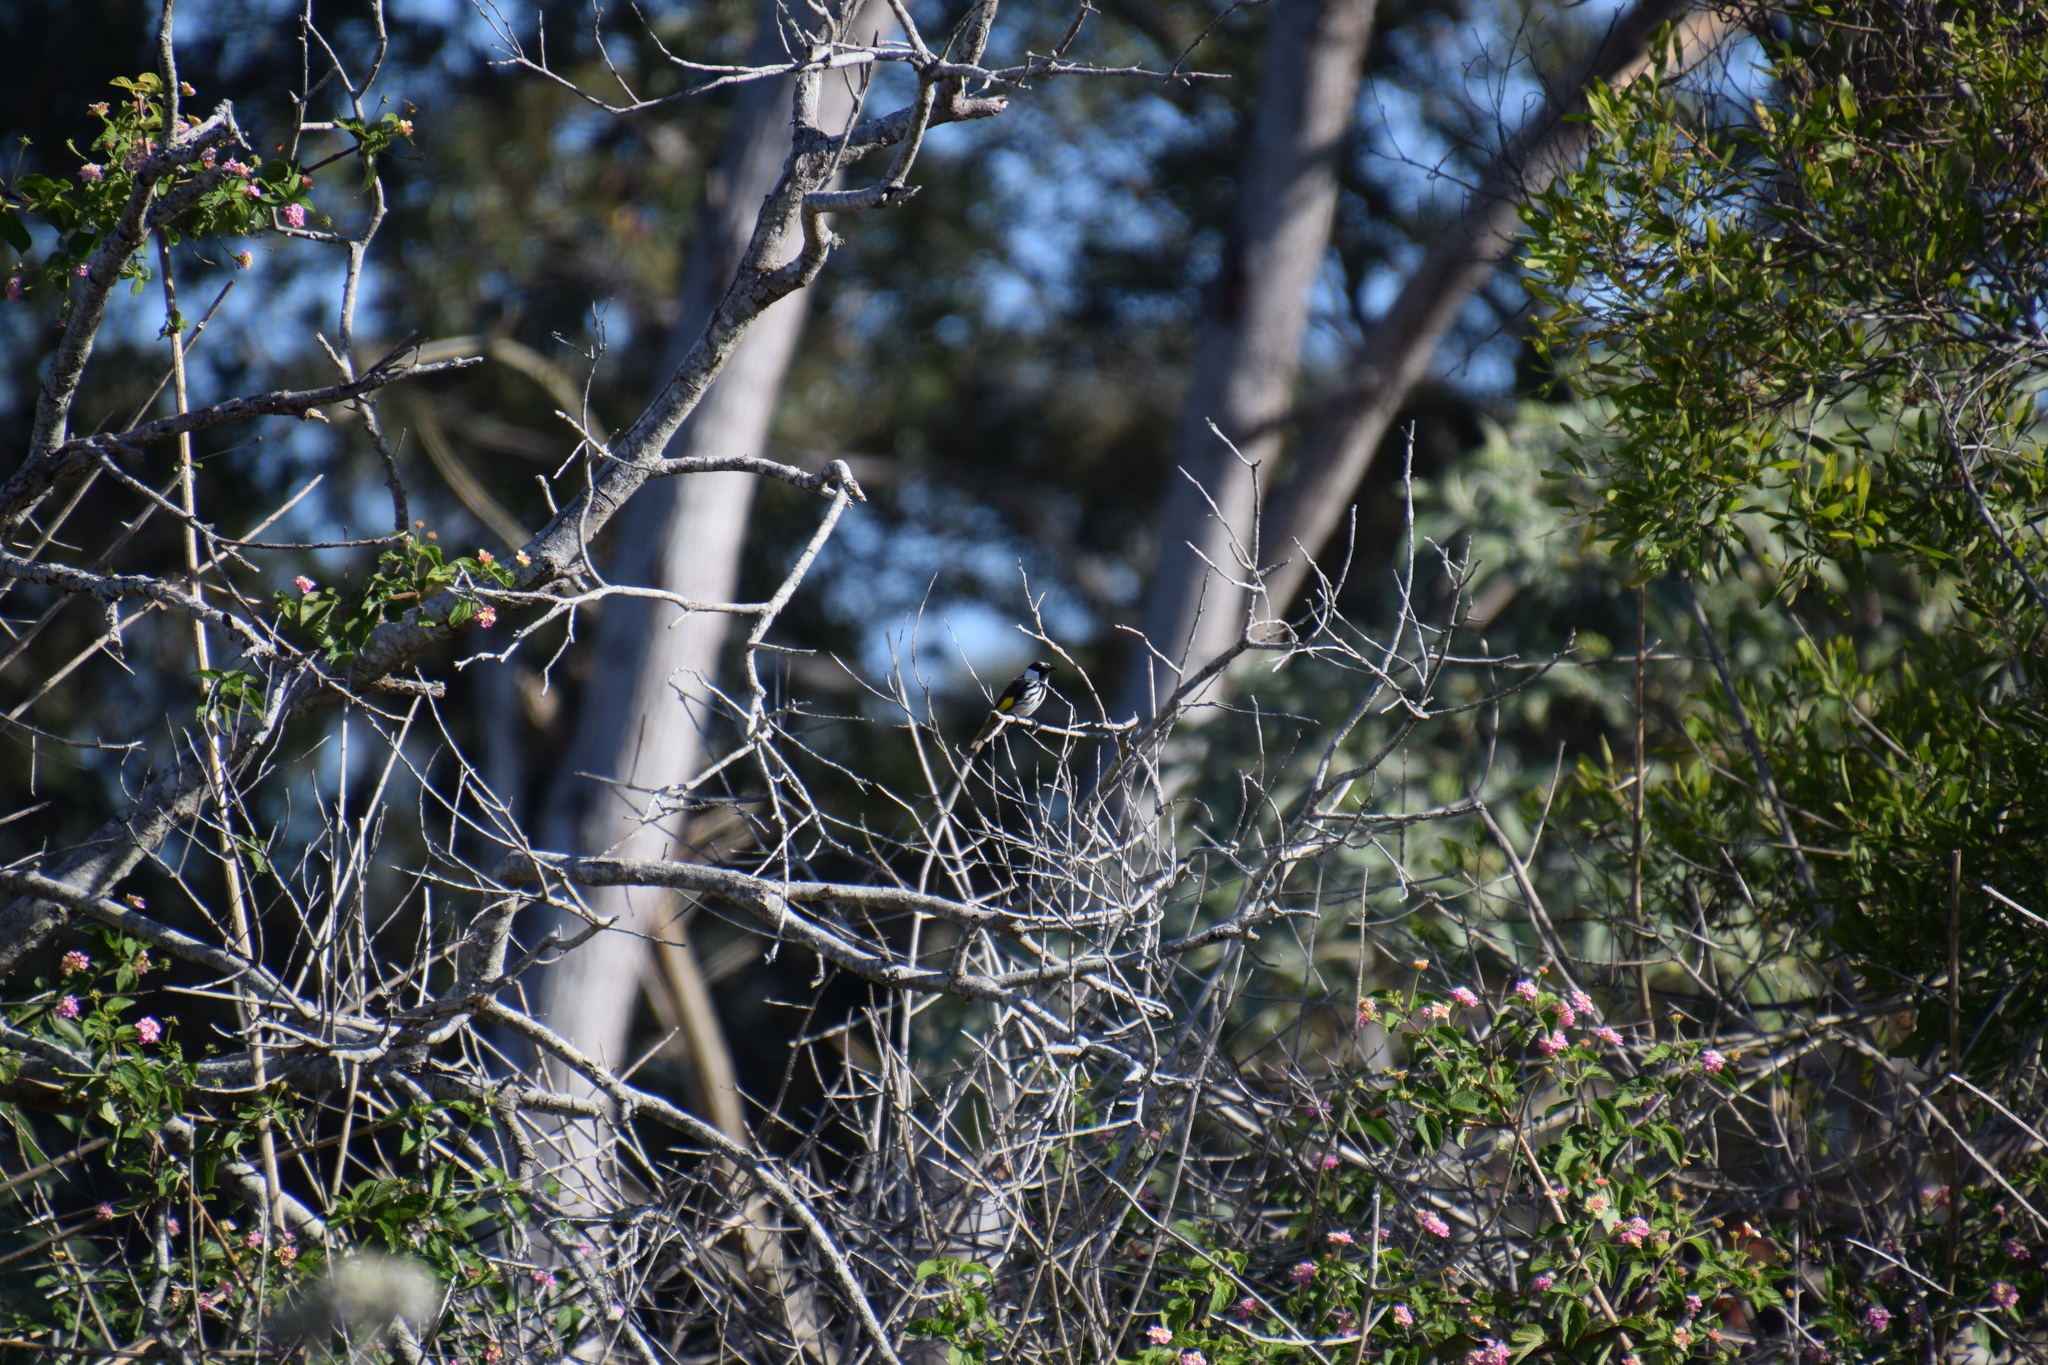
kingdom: Animalia
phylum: Chordata
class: Aves
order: Passeriformes
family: Meliphagidae
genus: Phylidonyris
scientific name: Phylidonyris niger
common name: White-cheeked honeyeater
